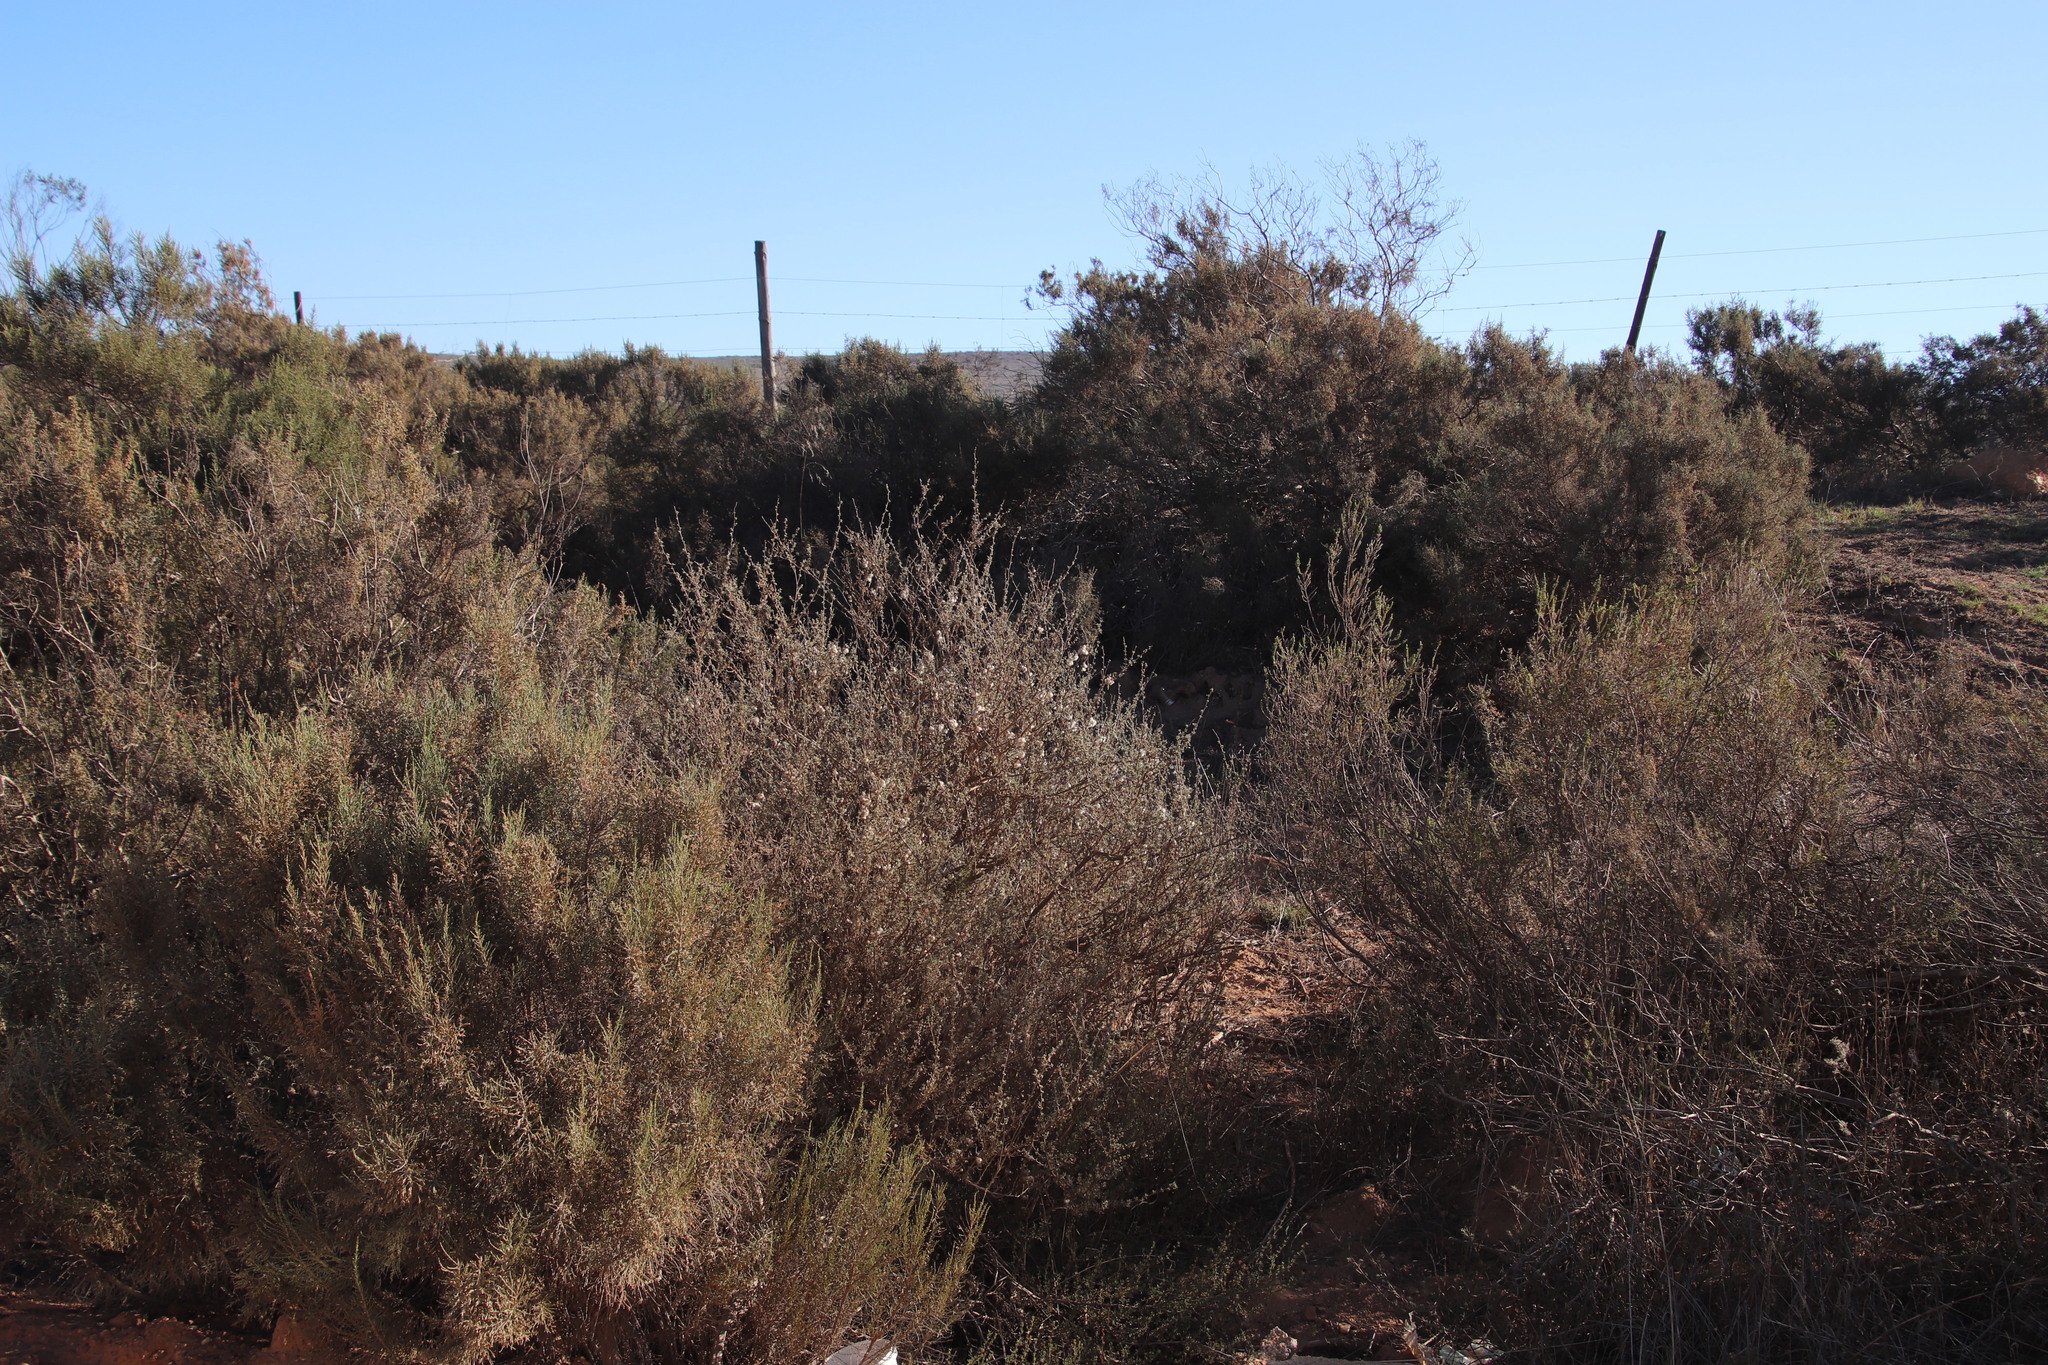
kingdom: Plantae
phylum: Tracheophyta
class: Magnoliopsida
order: Asterales
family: Asteraceae
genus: Eriocephalus
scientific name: Eriocephalus africanus
